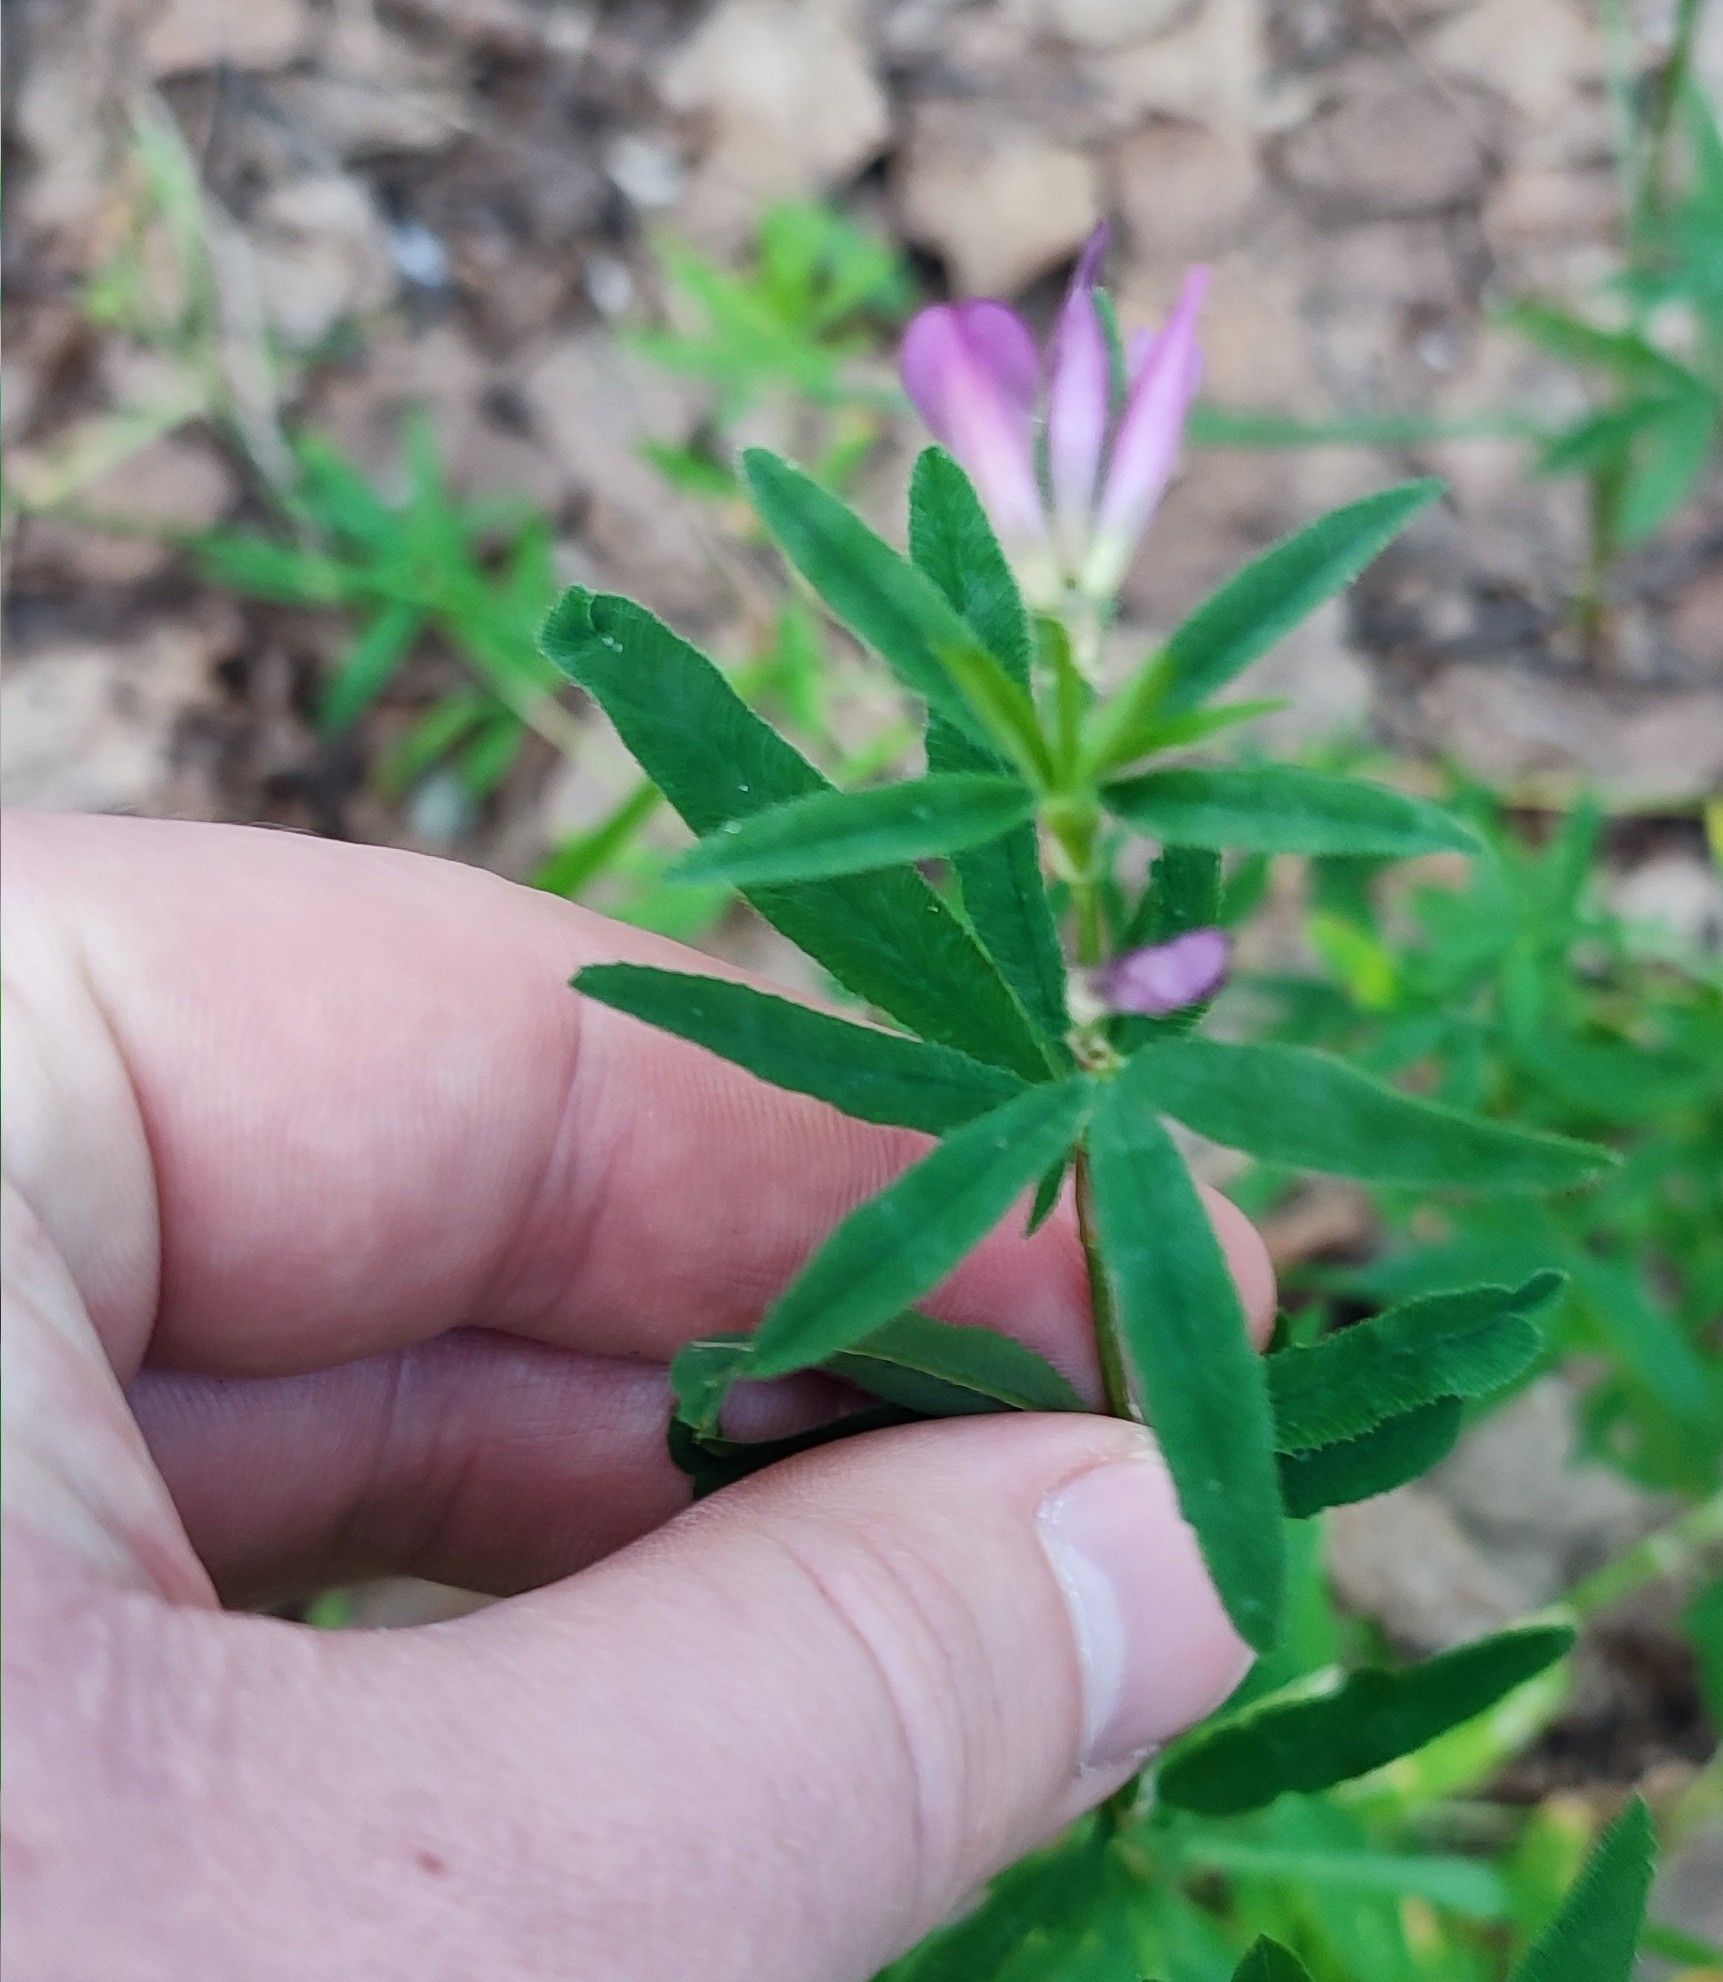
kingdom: Plantae
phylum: Tracheophyta
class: Magnoliopsida
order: Fabales
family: Fabaceae
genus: Trifolium
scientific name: Trifolium lupinaster
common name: Lupine clover
